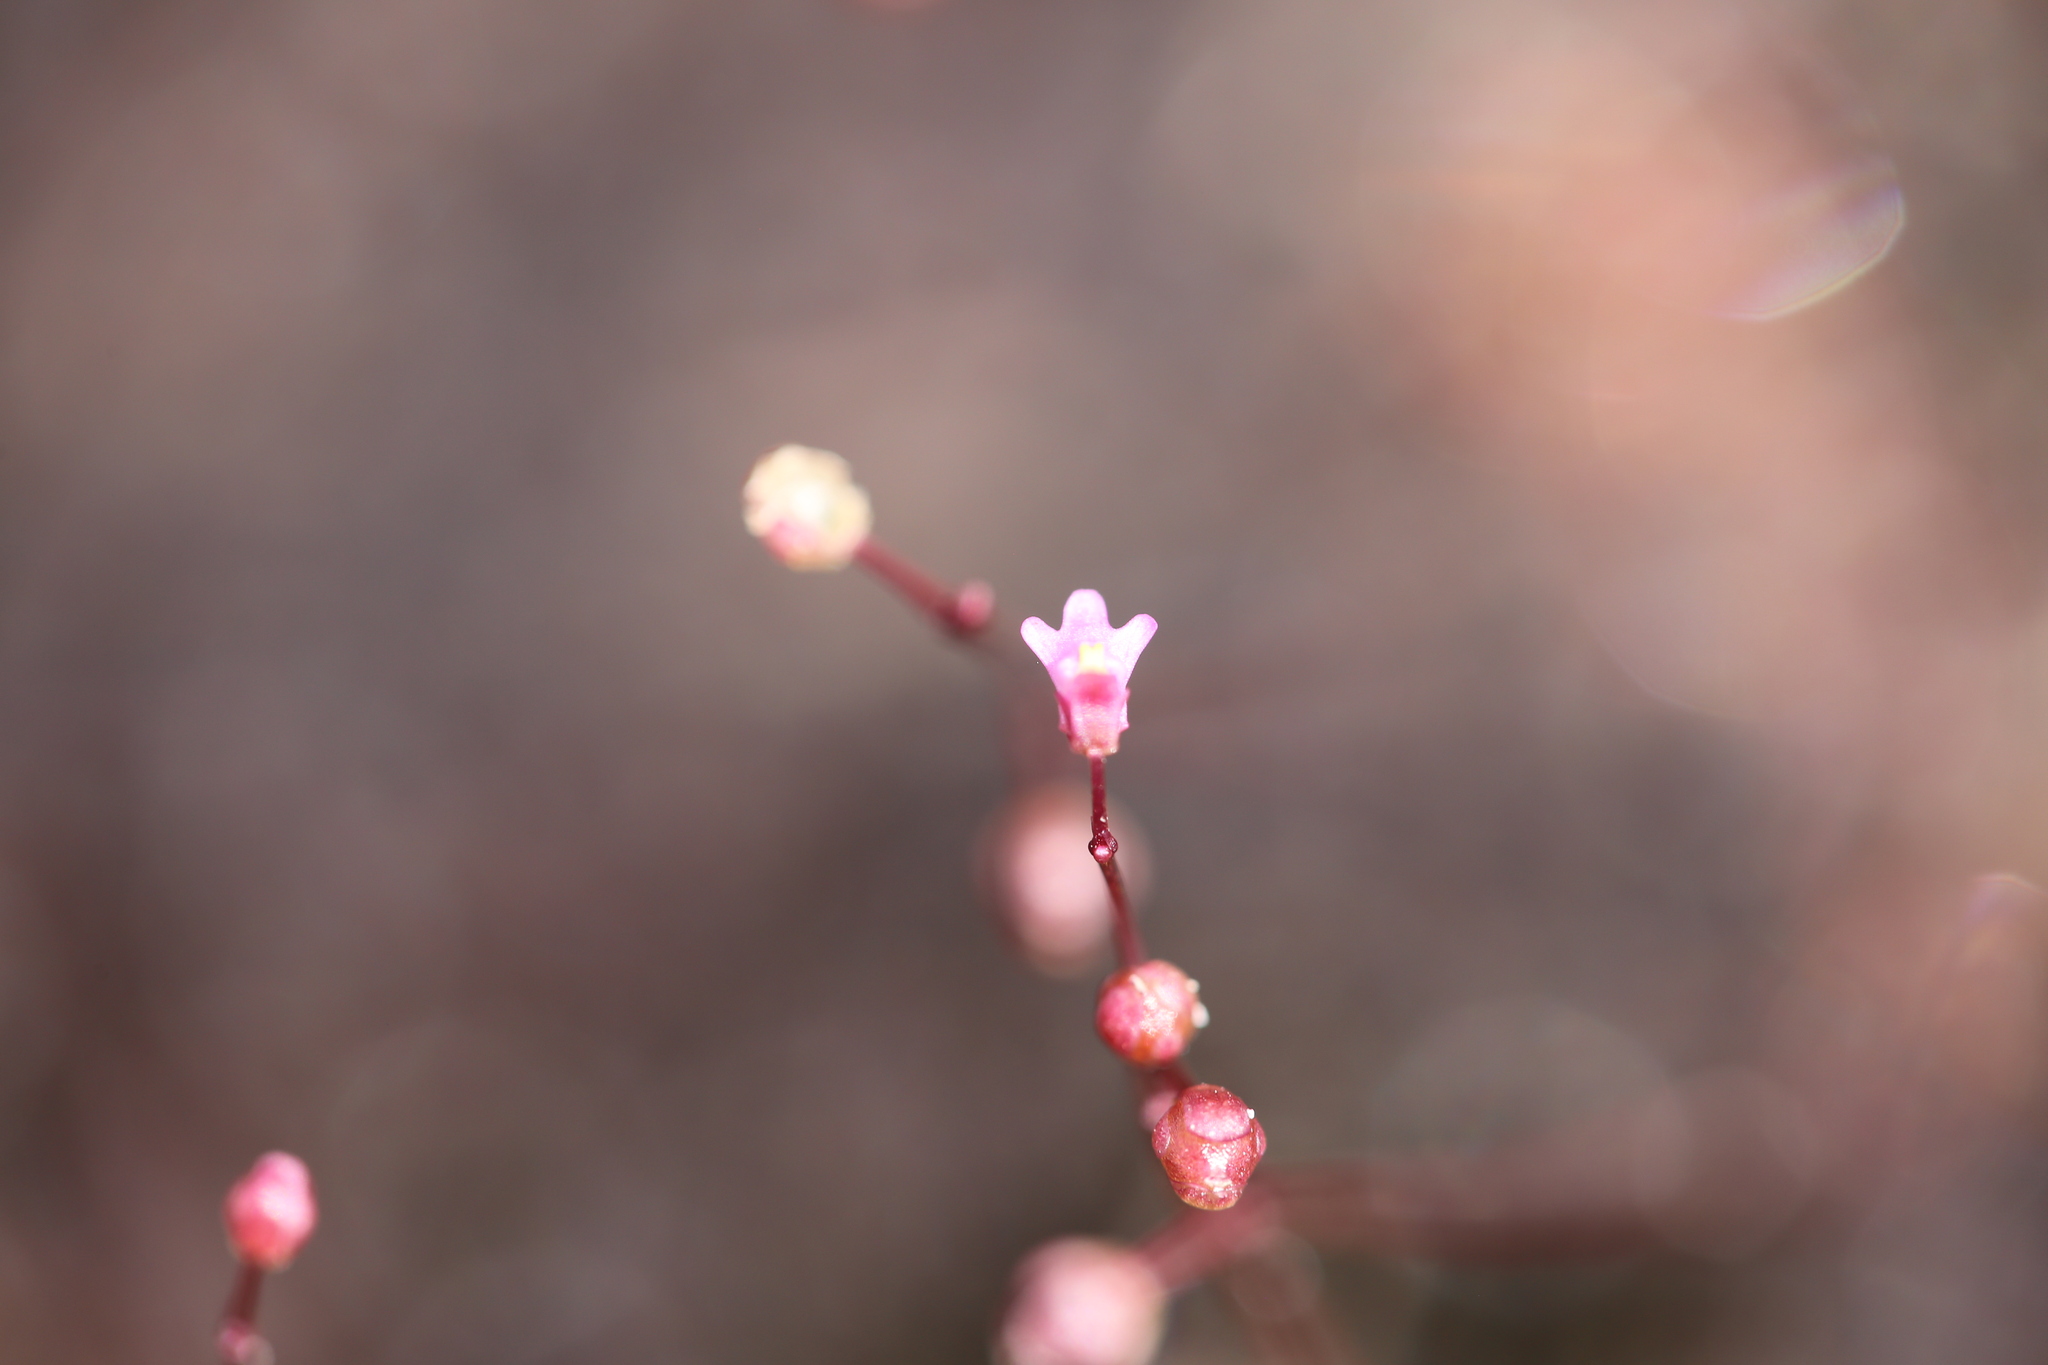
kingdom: Plantae
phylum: Tracheophyta
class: Magnoliopsida
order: Lamiales
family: Lentibulariaceae
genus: Utricularia
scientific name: Utricularia tenella
